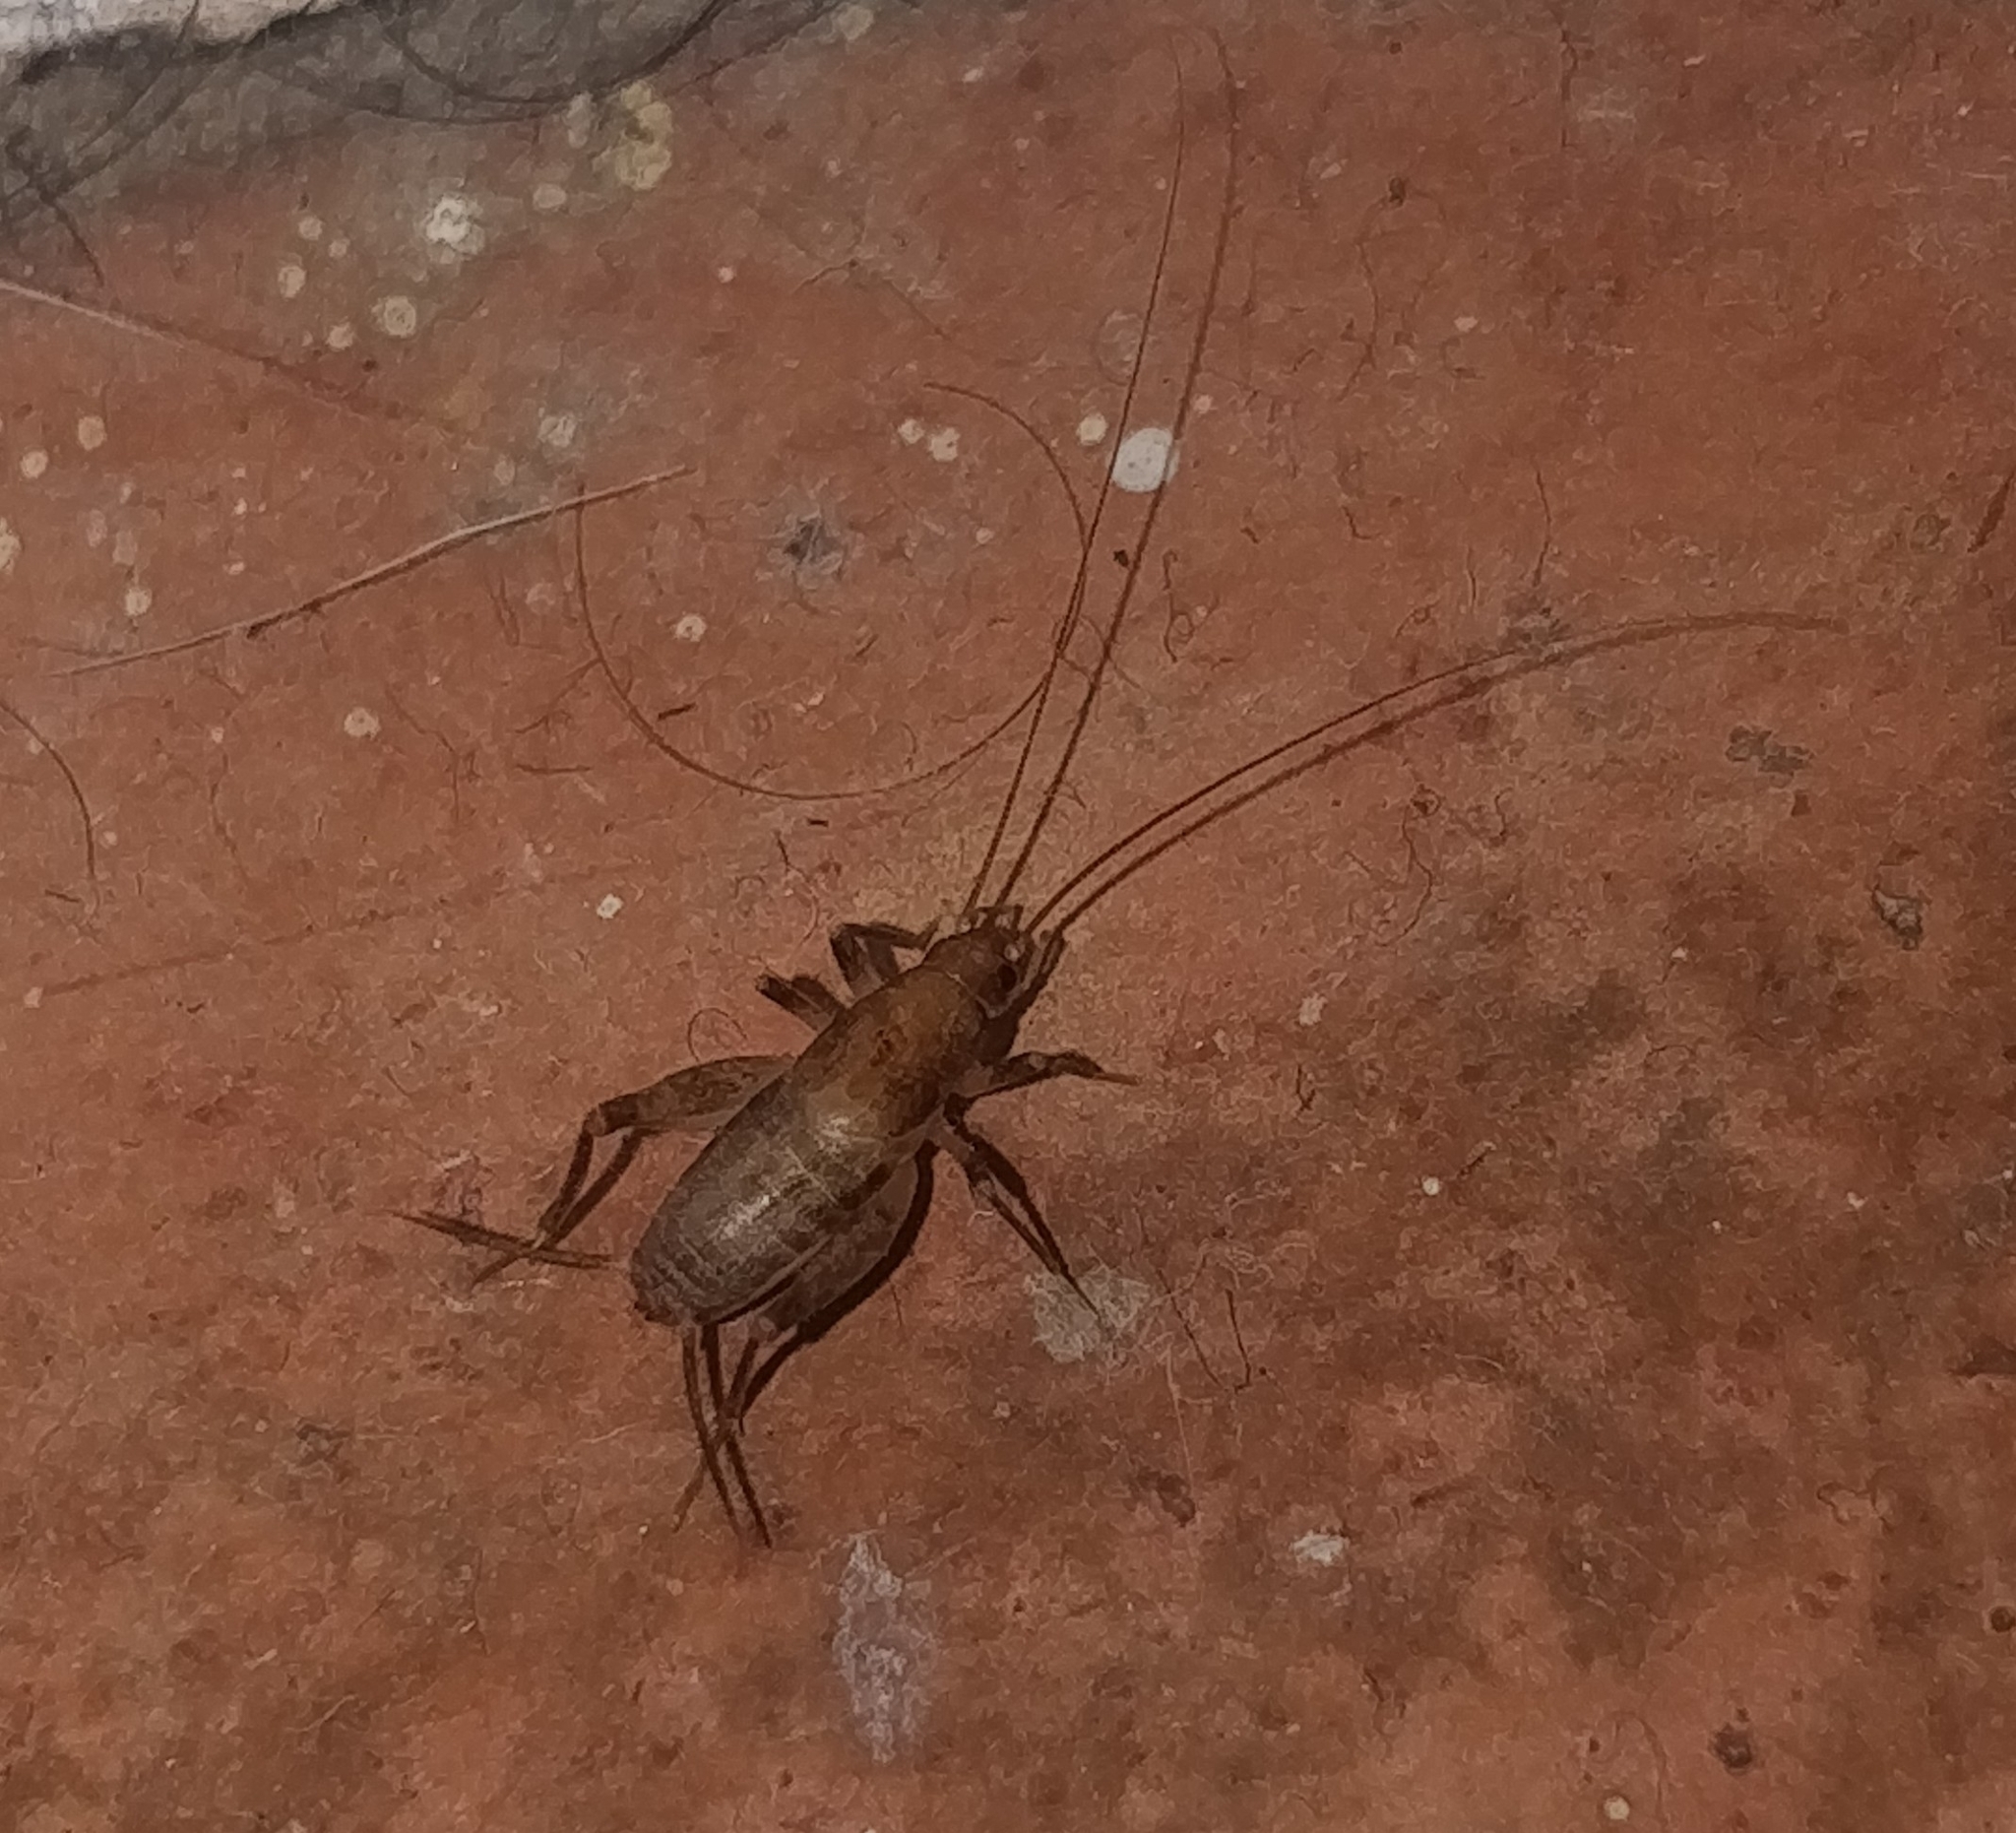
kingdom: Animalia
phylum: Arthropoda
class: Insecta
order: Orthoptera
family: Mogoplistidae
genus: Cycloptiloides
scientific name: Cycloptiloides canariensis
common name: Canarian tiny cricket
